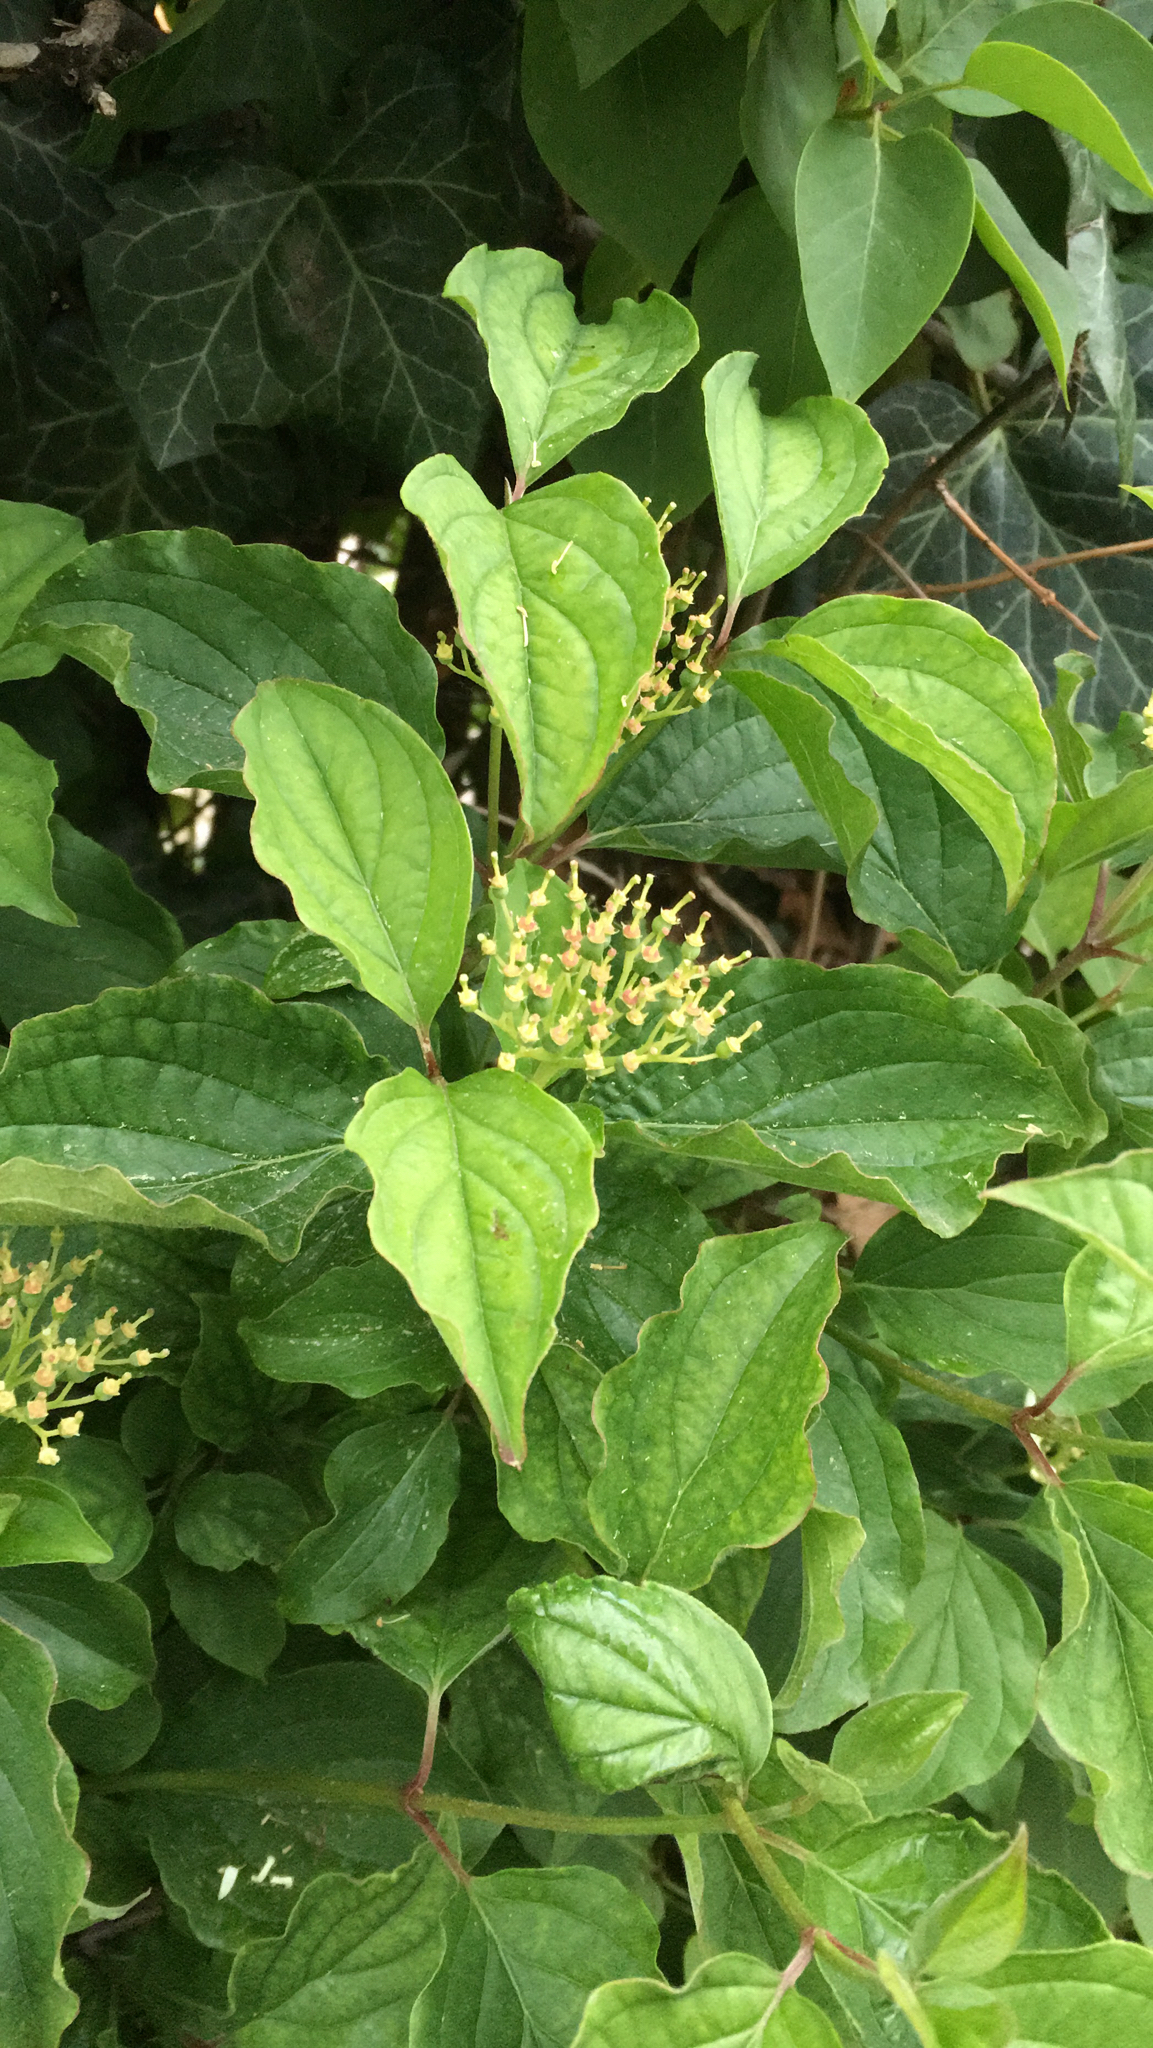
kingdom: Plantae
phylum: Tracheophyta
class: Magnoliopsida
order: Cornales
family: Cornaceae
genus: Cornus
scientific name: Cornus sanguinea
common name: Dogwood
